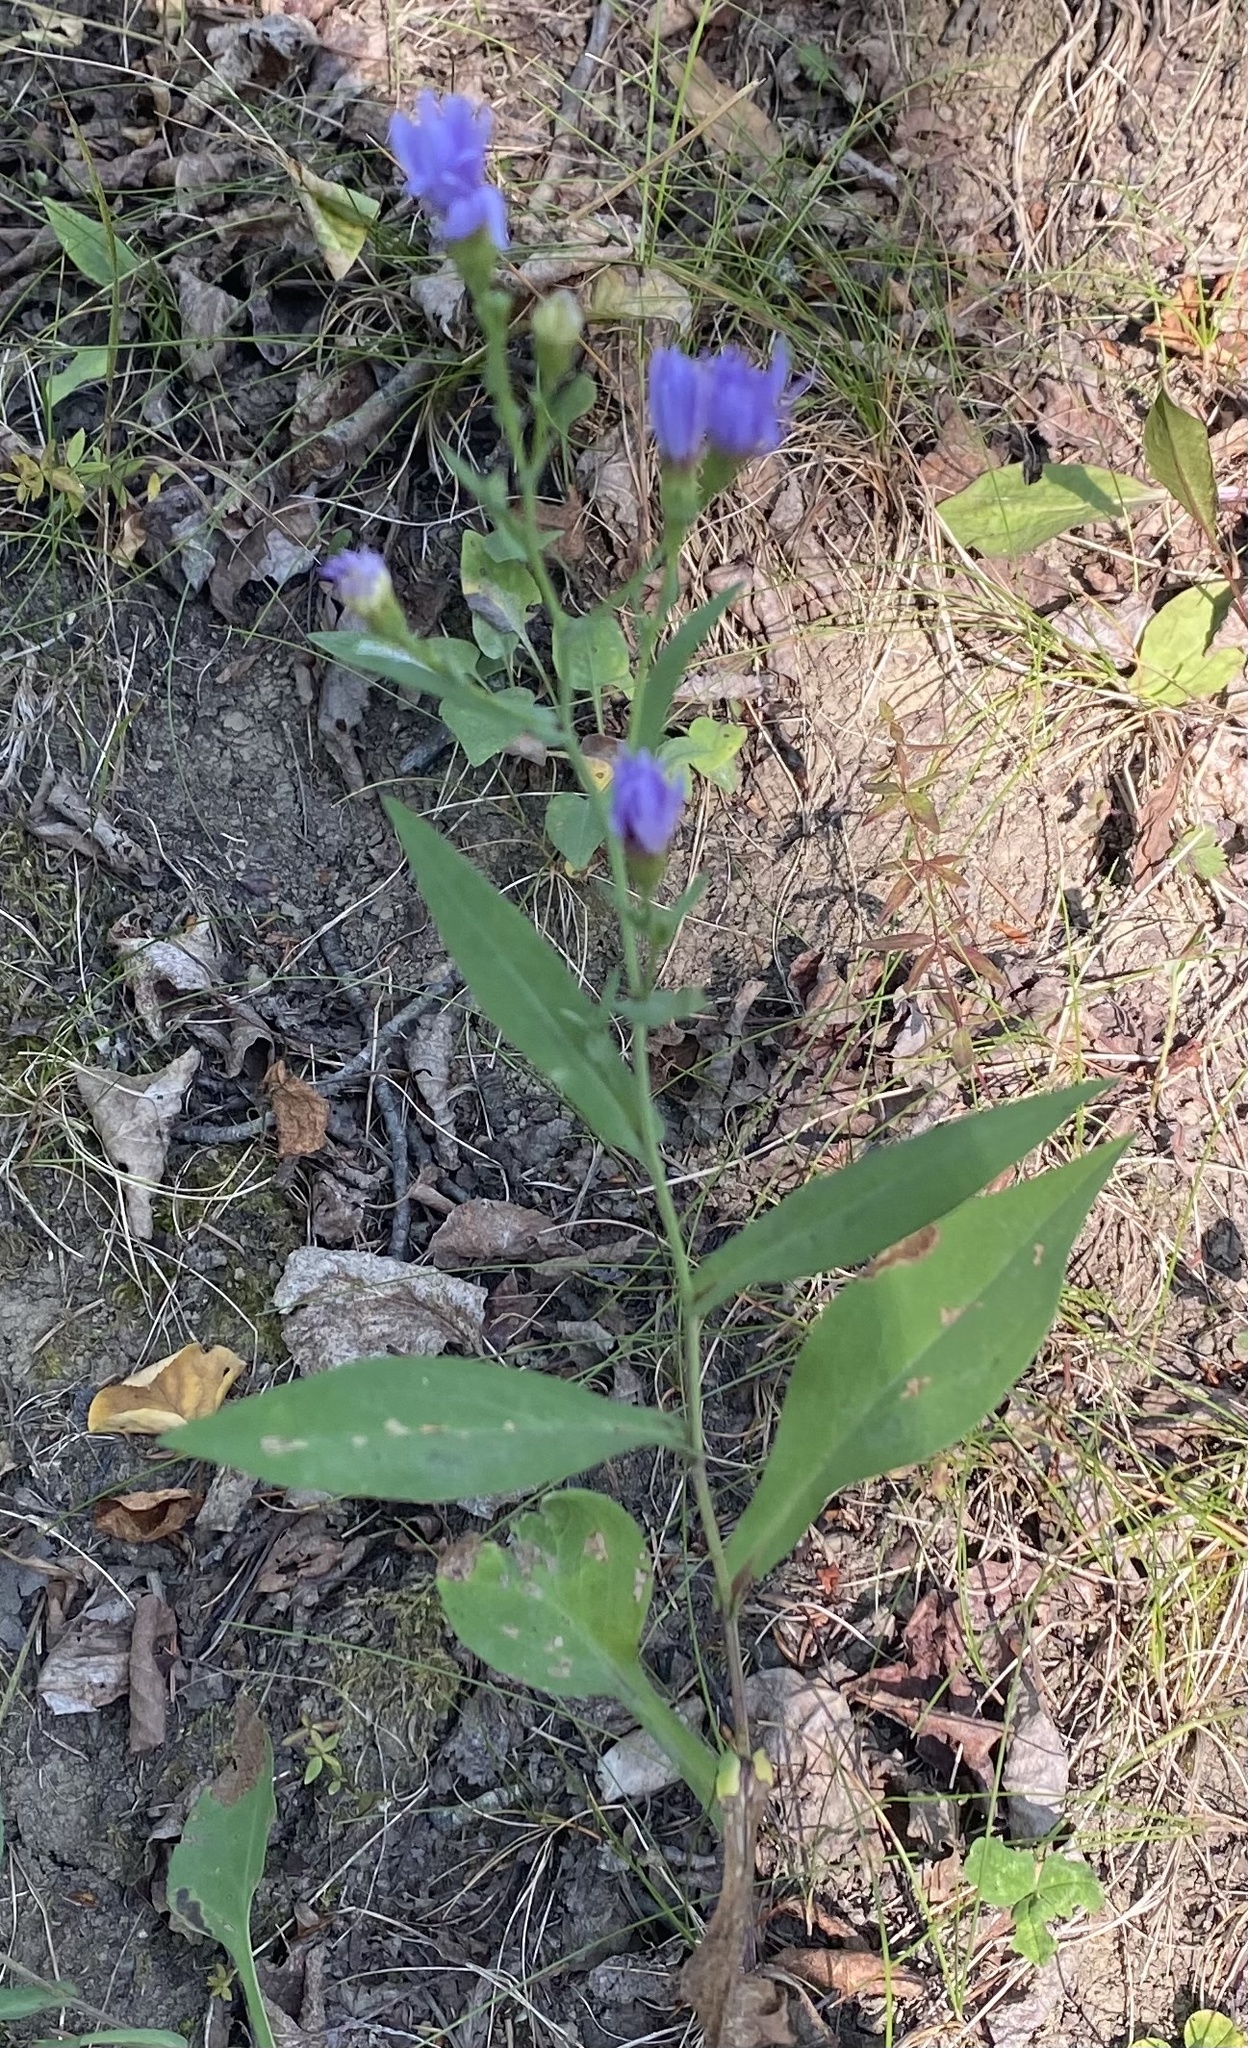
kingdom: Plantae
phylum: Tracheophyta
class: Magnoliopsida
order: Asterales
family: Asteraceae
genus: Symphyotrichum
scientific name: Symphyotrichum laeve
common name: Glaucous aster
